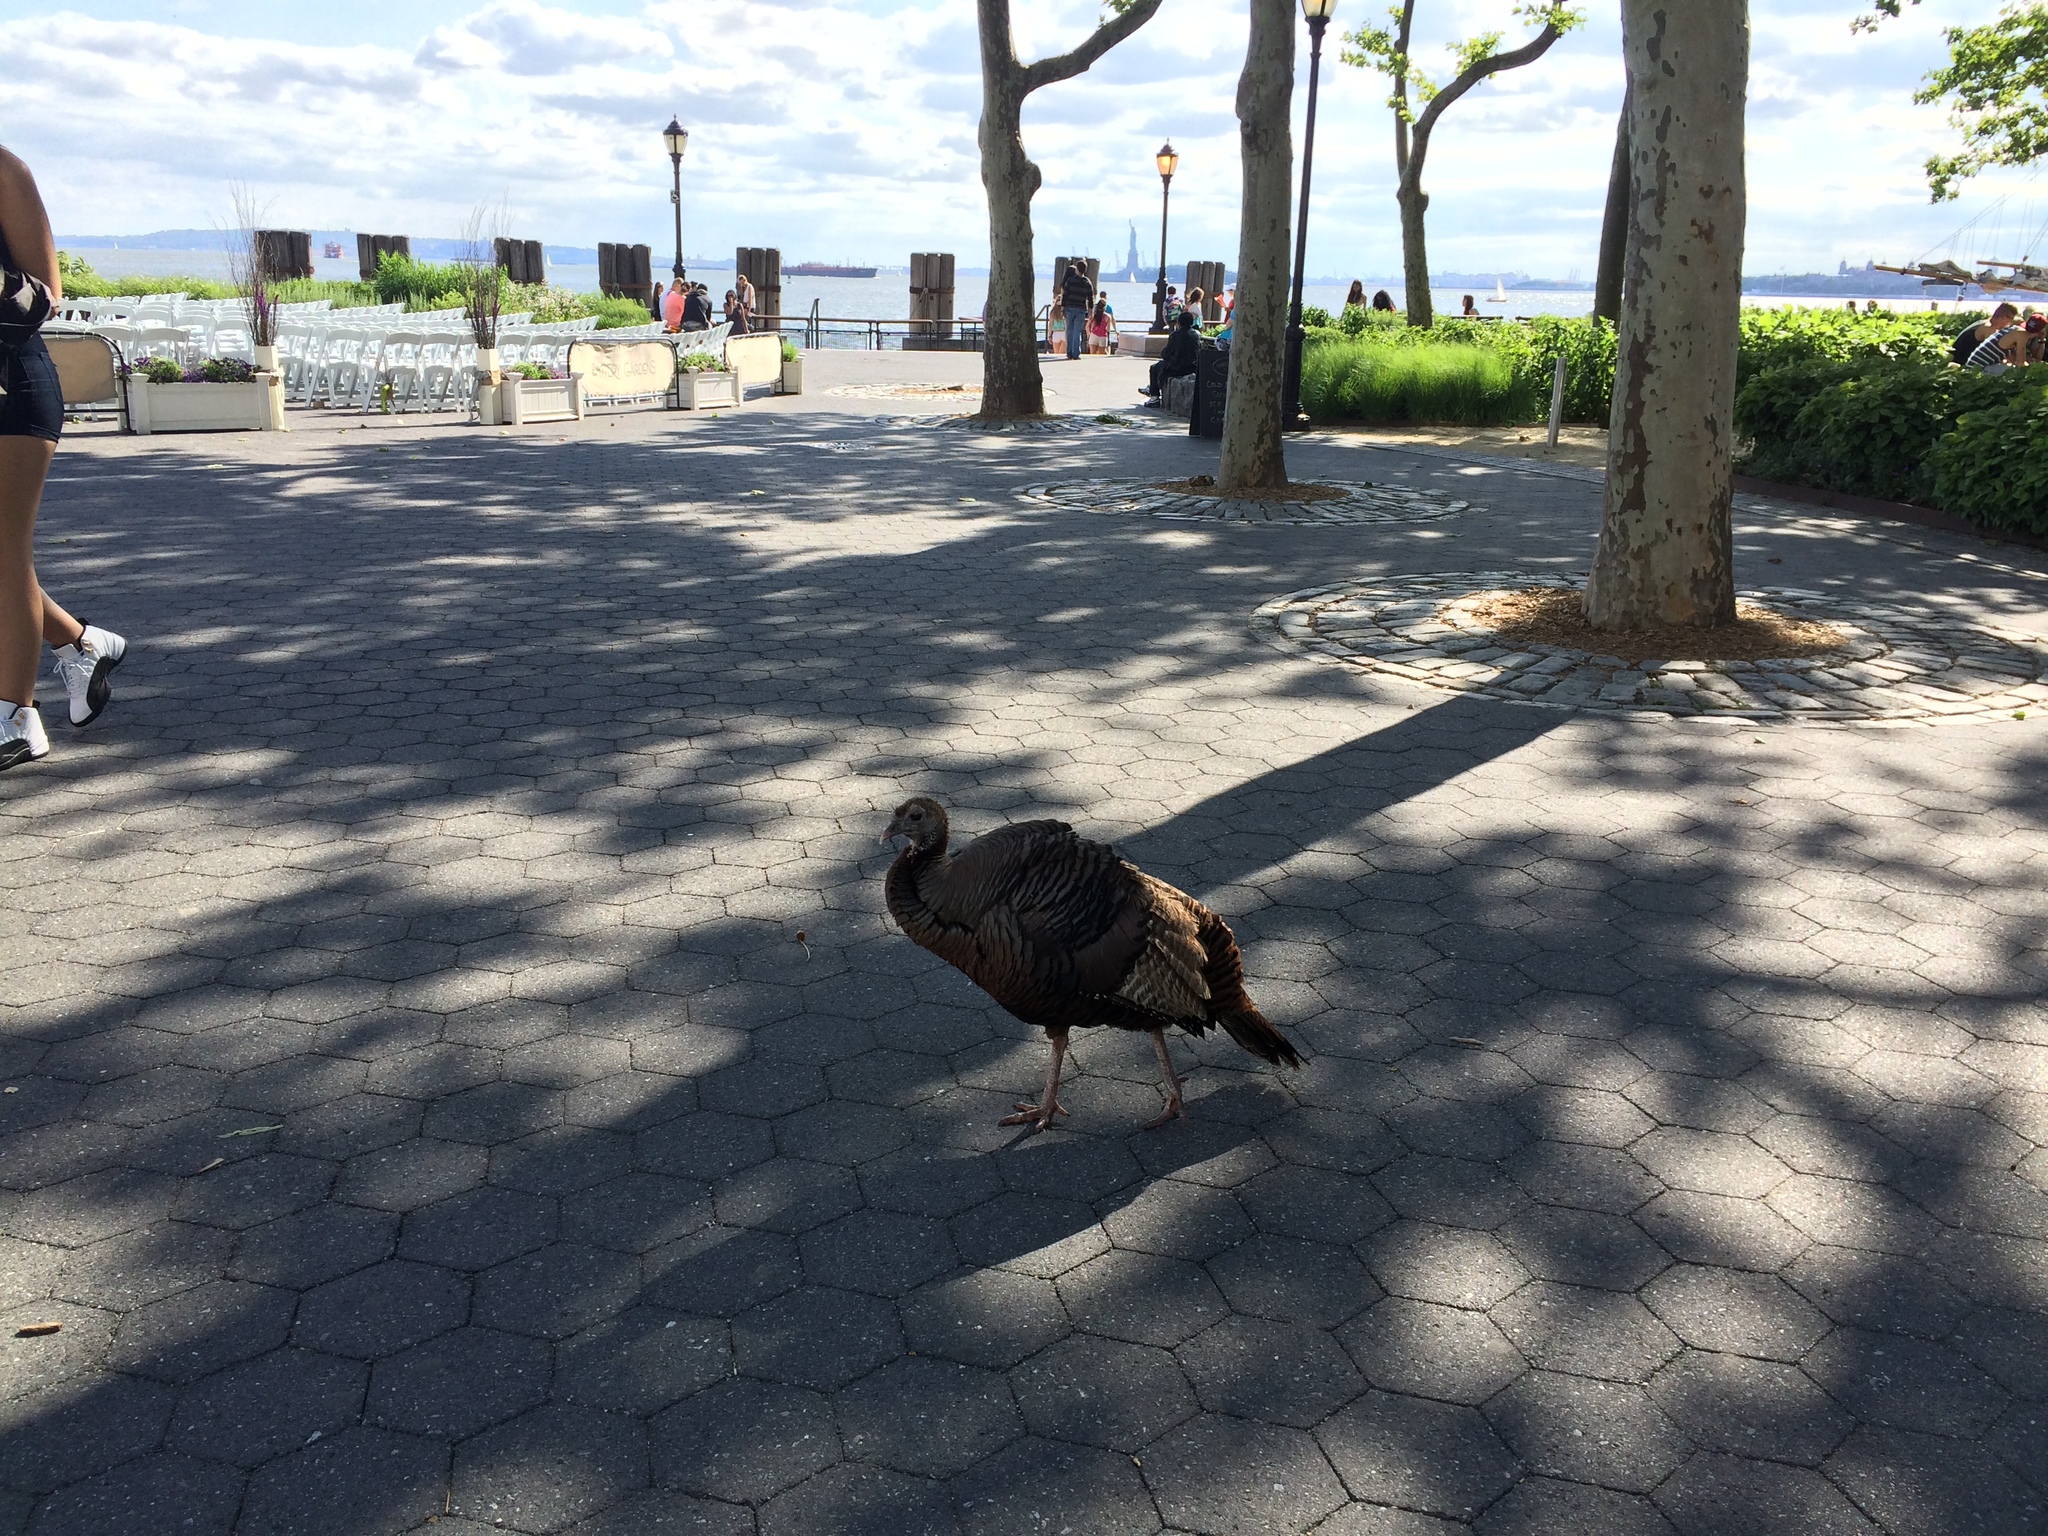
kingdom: Animalia
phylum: Chordata
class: Aves
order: Galliformes
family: Phasianidae
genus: Meleagris
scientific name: Meleagris gallopavo
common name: Wild turkey
